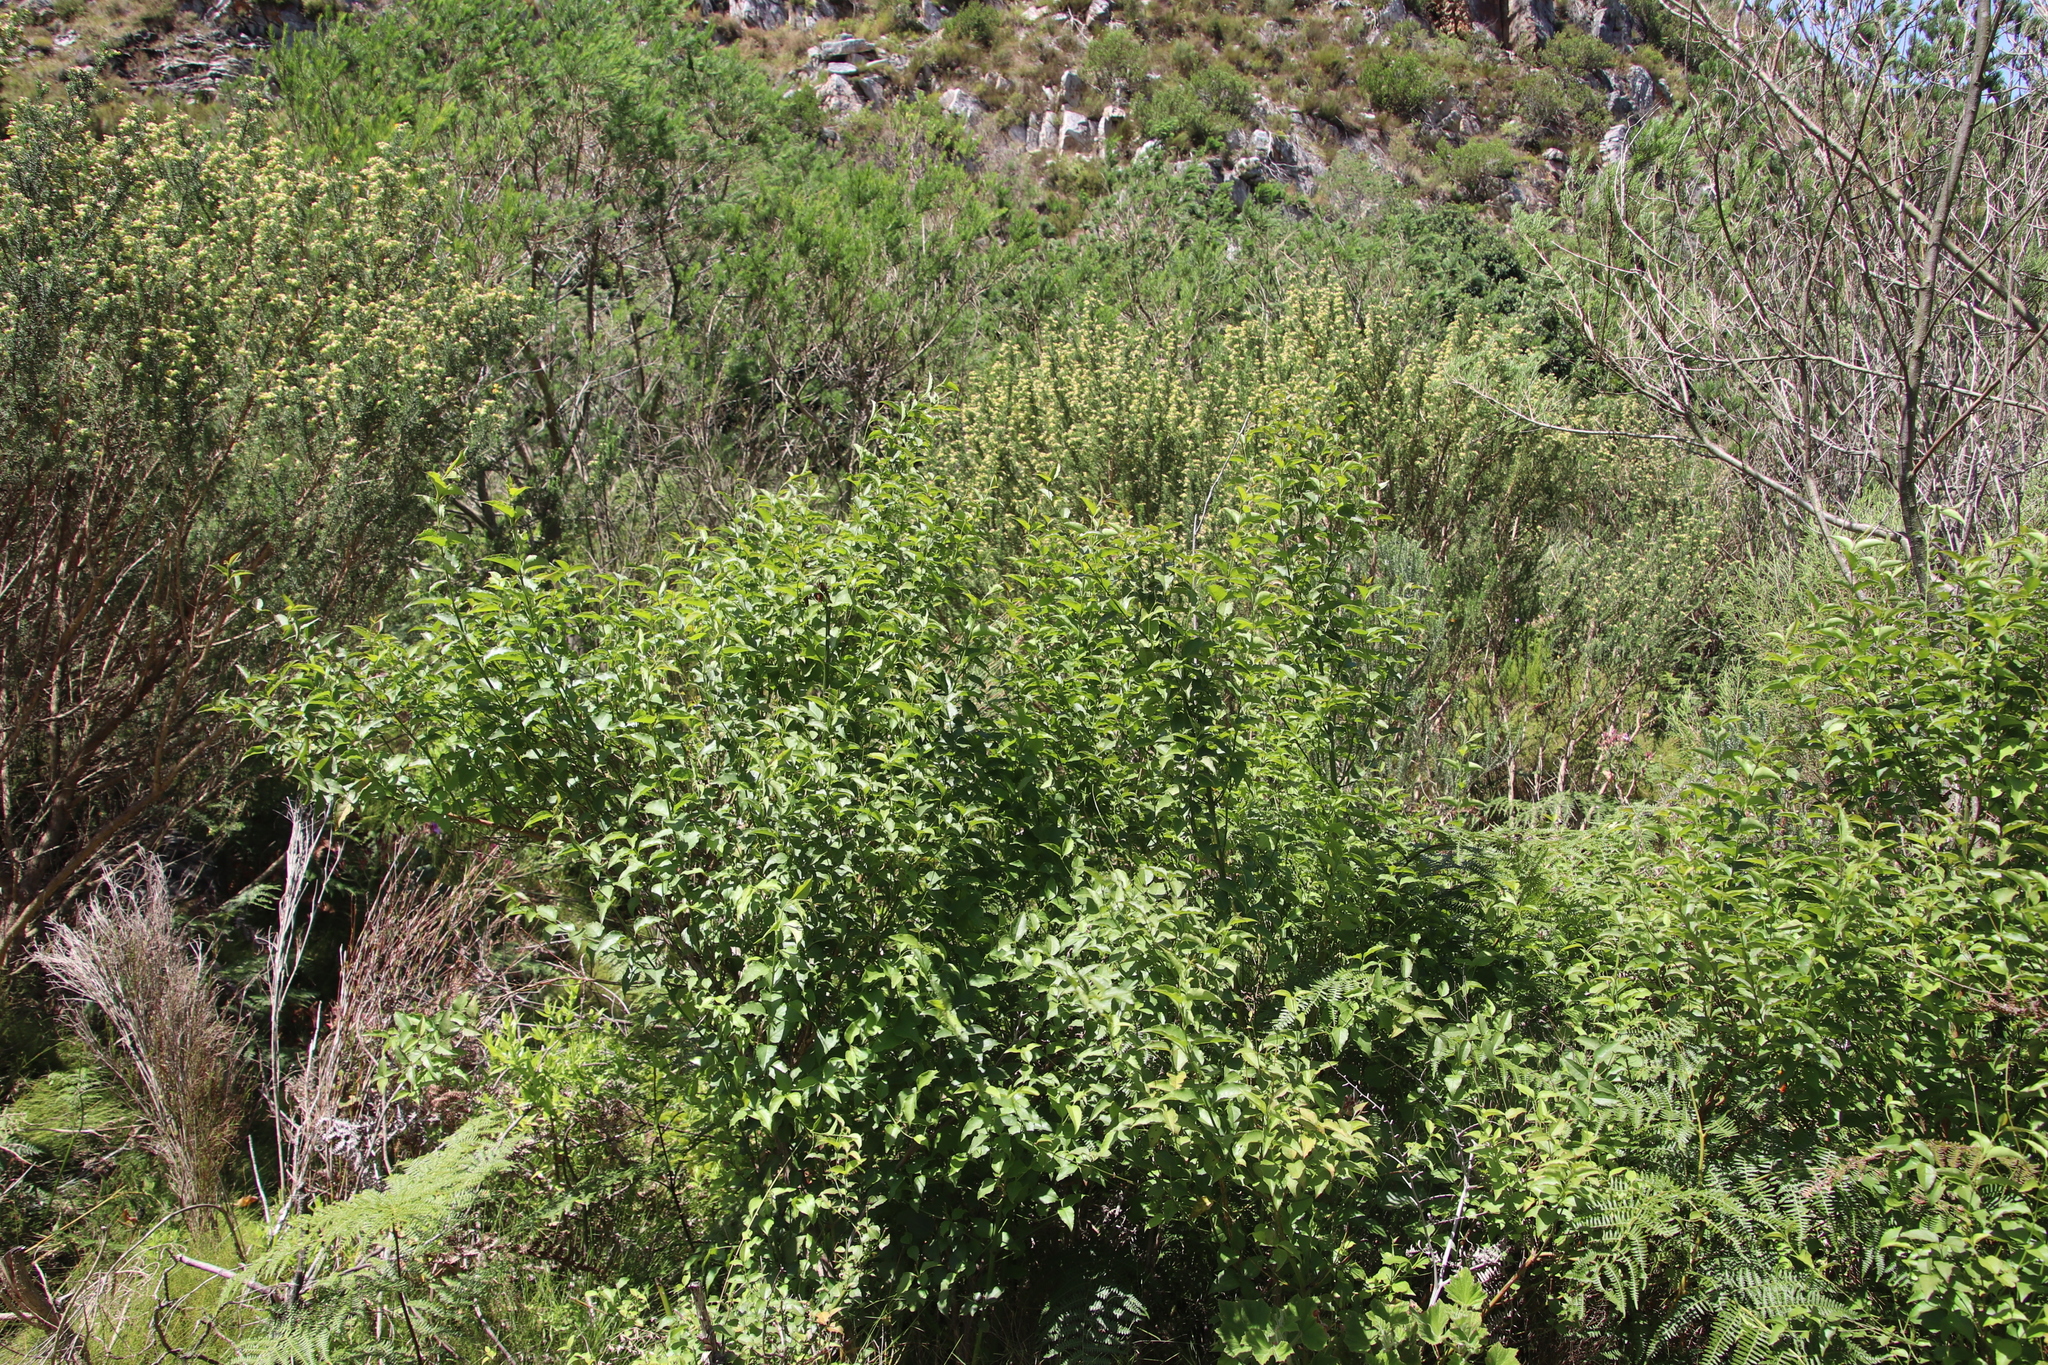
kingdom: Plantae
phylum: Tracheophyta
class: Magnoliopsida
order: Lamiales
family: Stilbaceae
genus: Halleria
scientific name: Halleria lucida
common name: Tree fuschia
